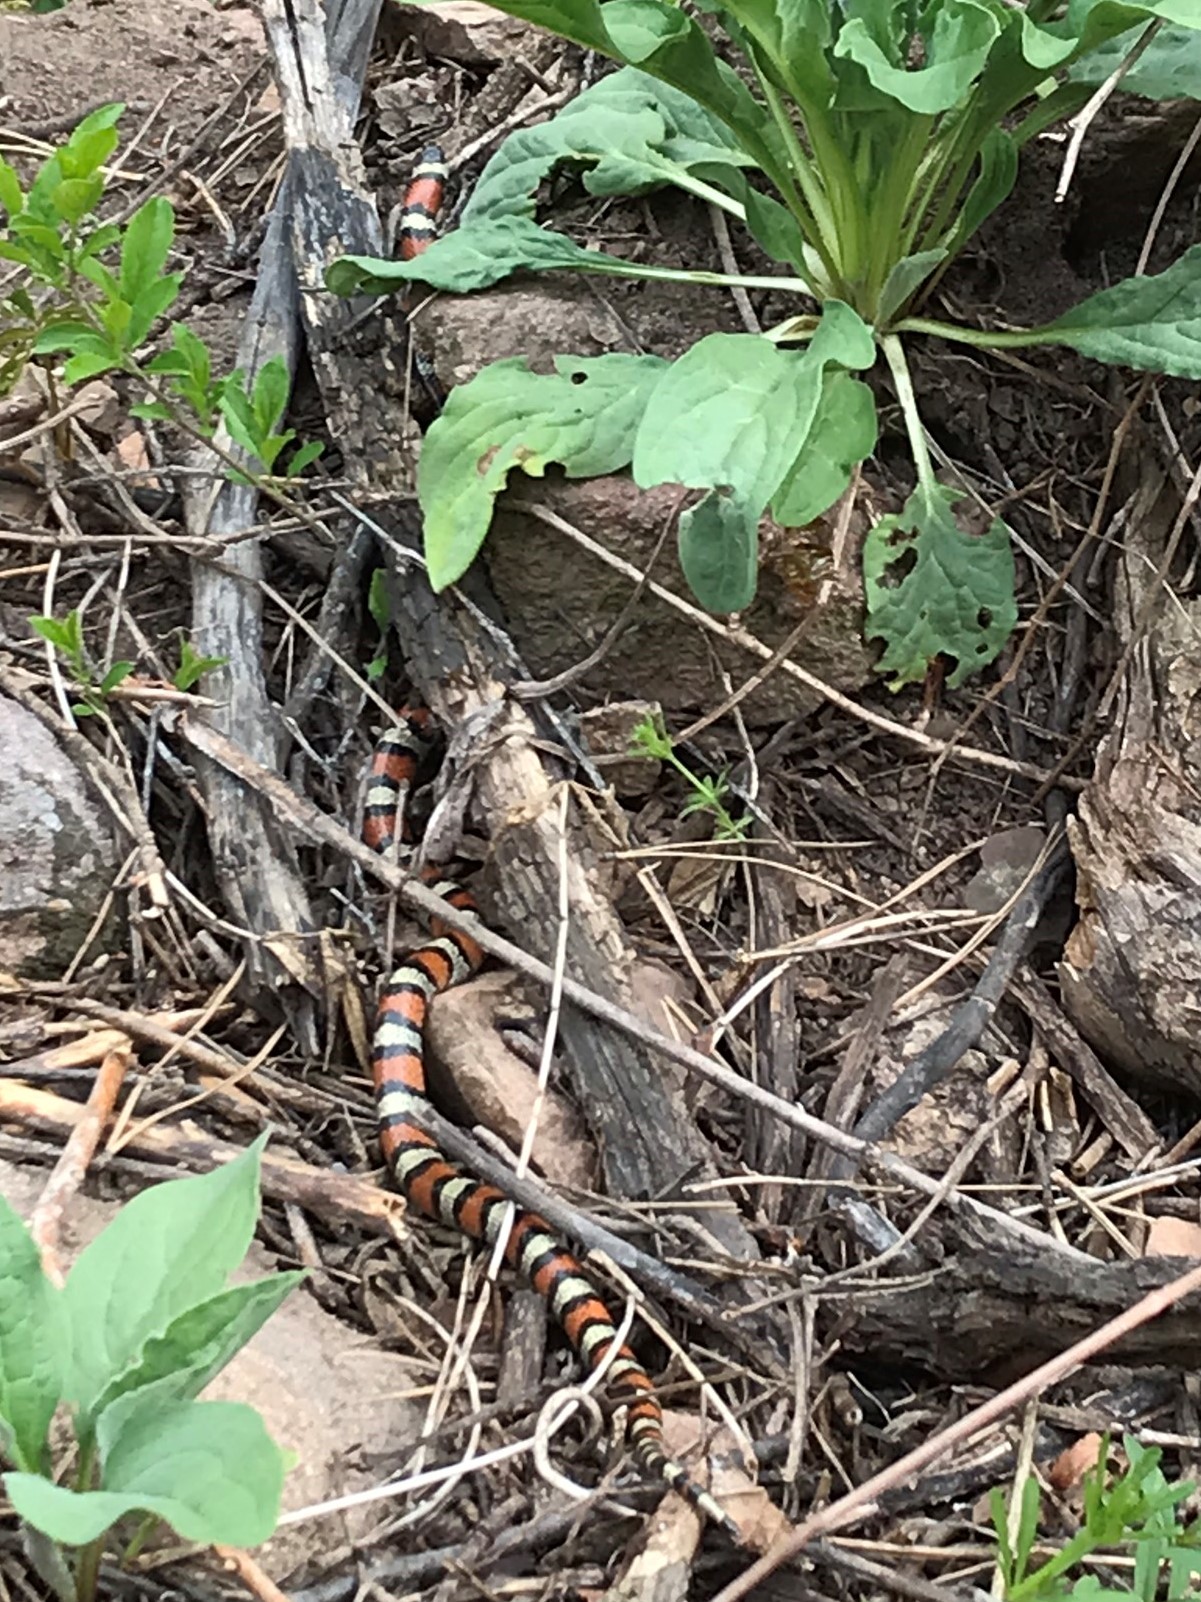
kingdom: Animalia
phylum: Chordata
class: Squamata
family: Colubridae
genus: Lampropeltis
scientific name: Lampropeltis gentilis
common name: Central plains milksnake
